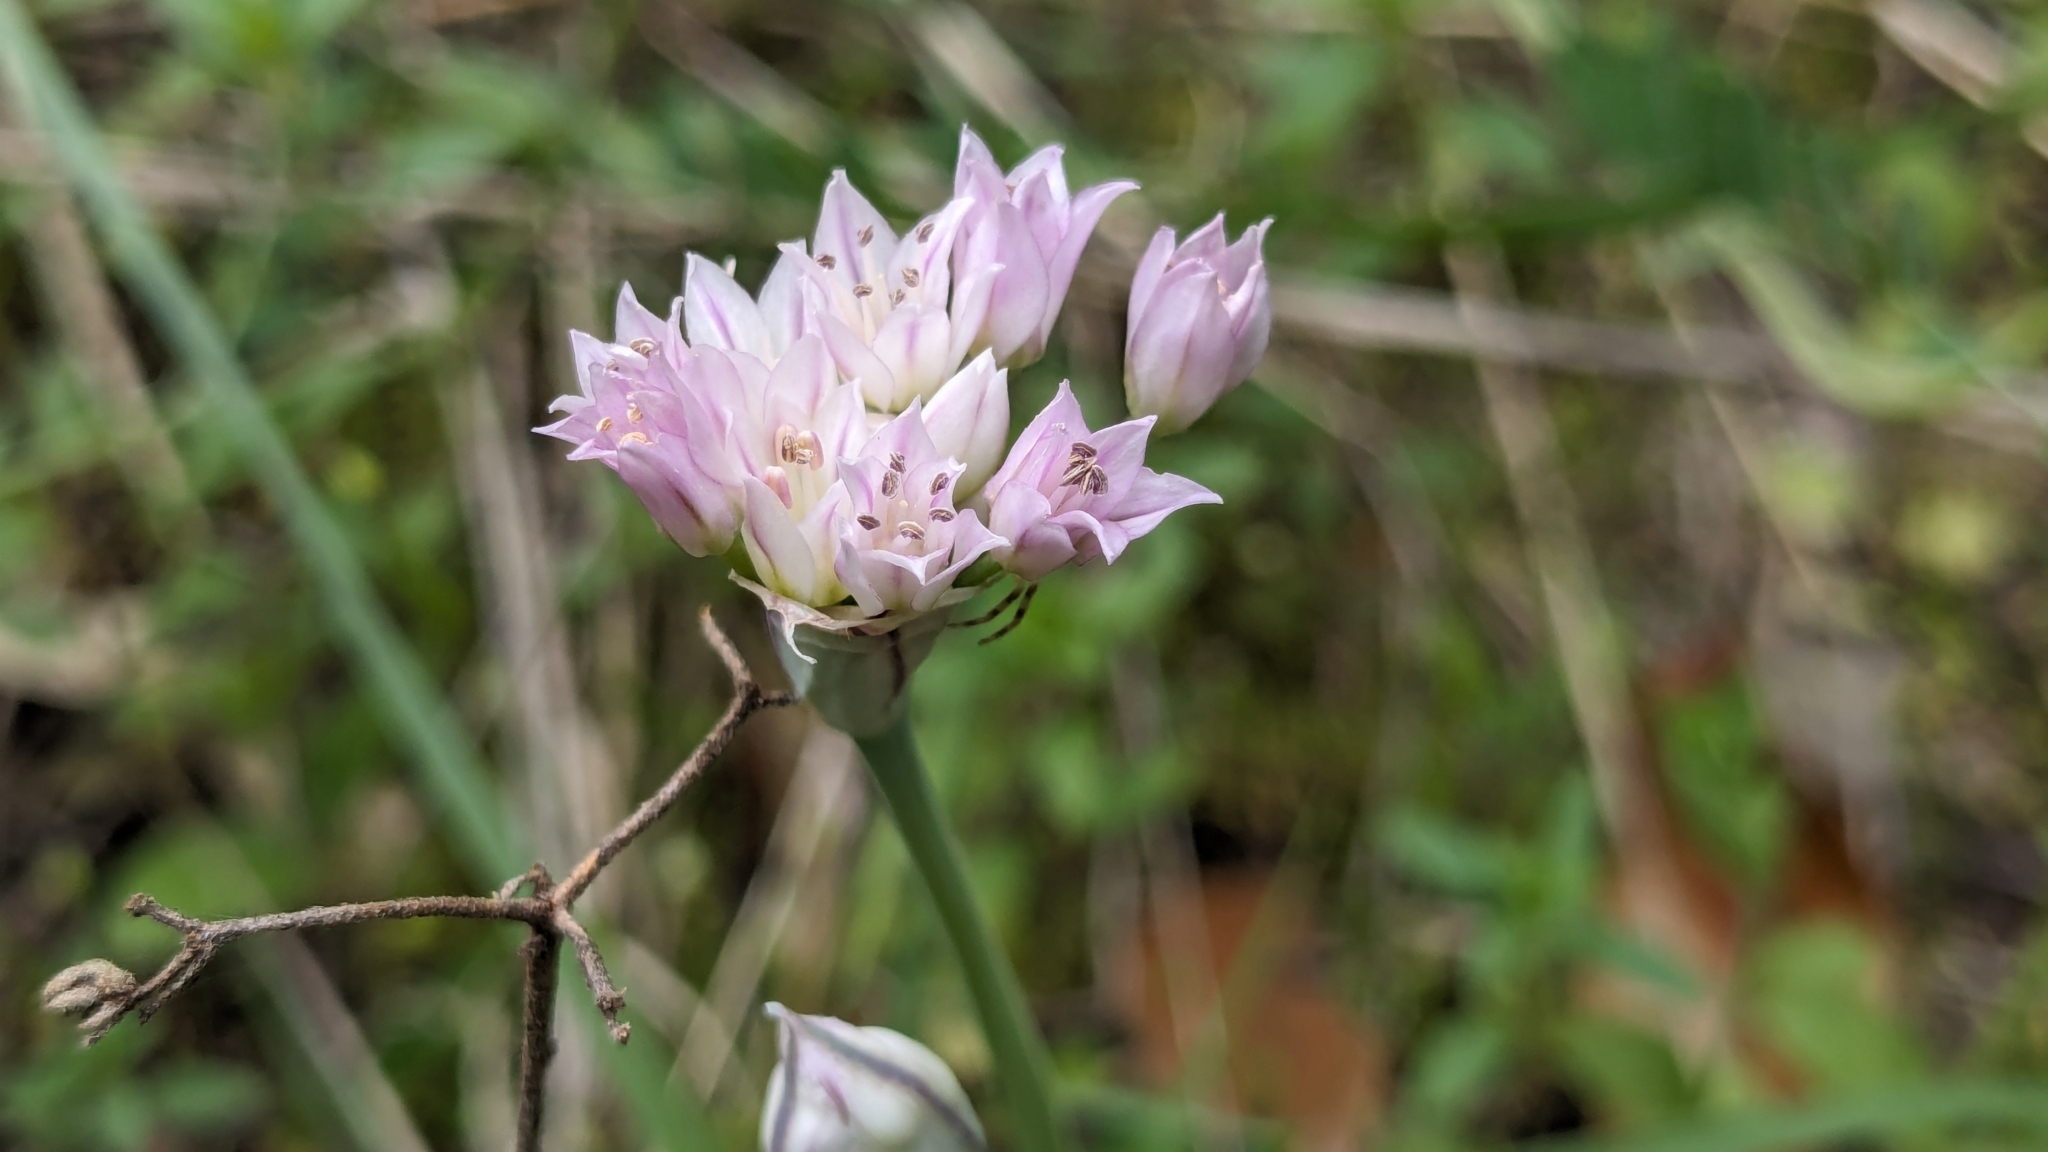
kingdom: Plantae
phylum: Tracheophyta
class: Liliopsida
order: Asparagales
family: Amaryllidaceae
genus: Allium
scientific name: Allium drummondii
